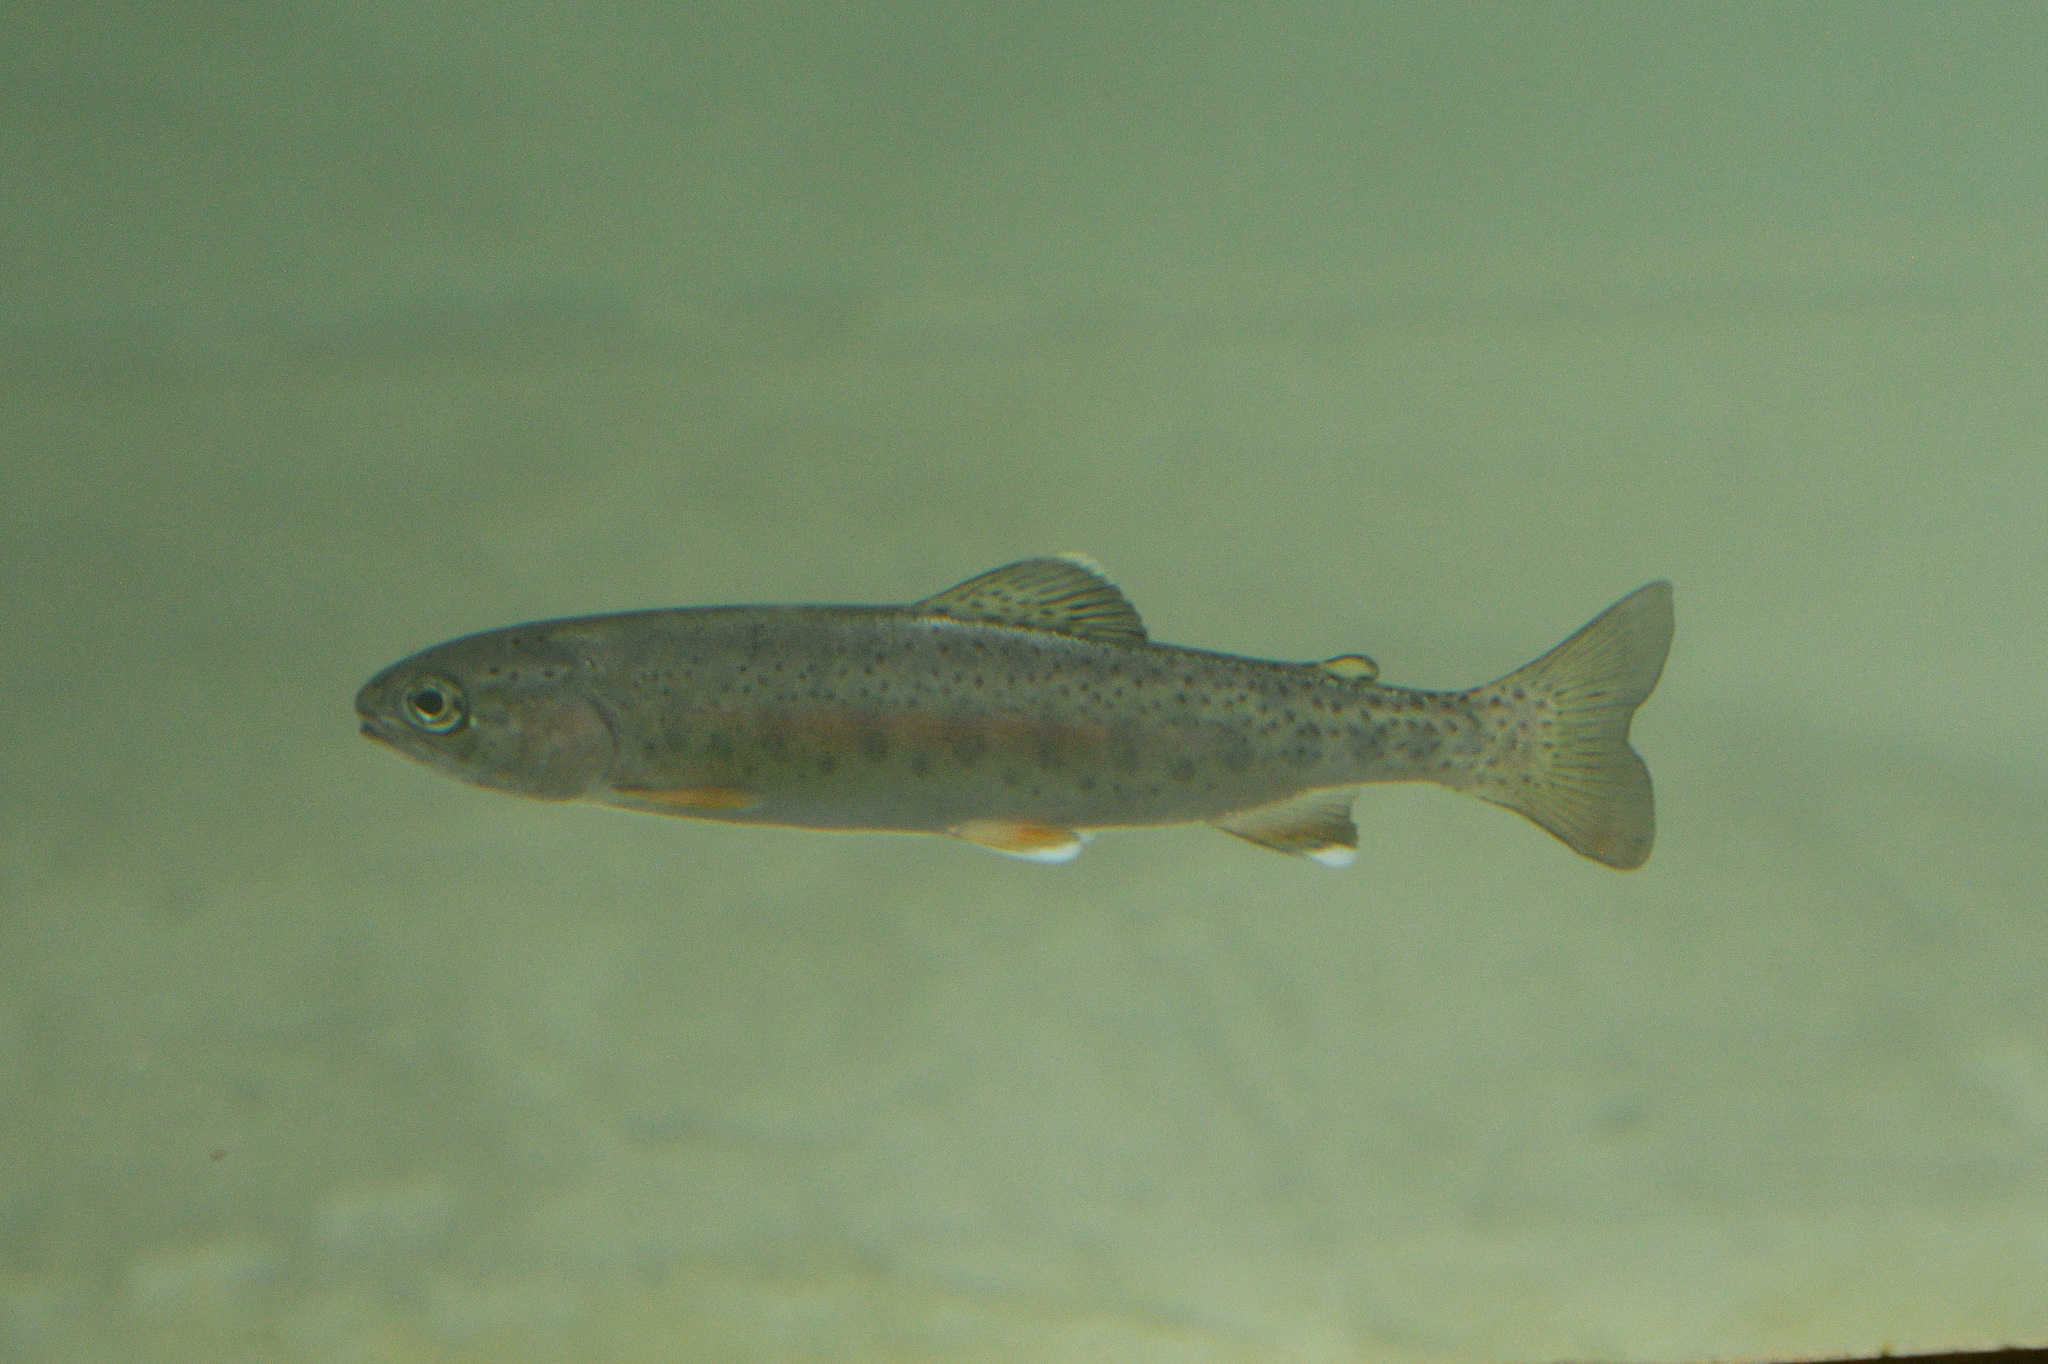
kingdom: Animalia
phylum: Chordata
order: Salmoniformes
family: Salmonidae
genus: Oncorhynchus
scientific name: Oncorhynchus mykiss
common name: Rainbow trout
